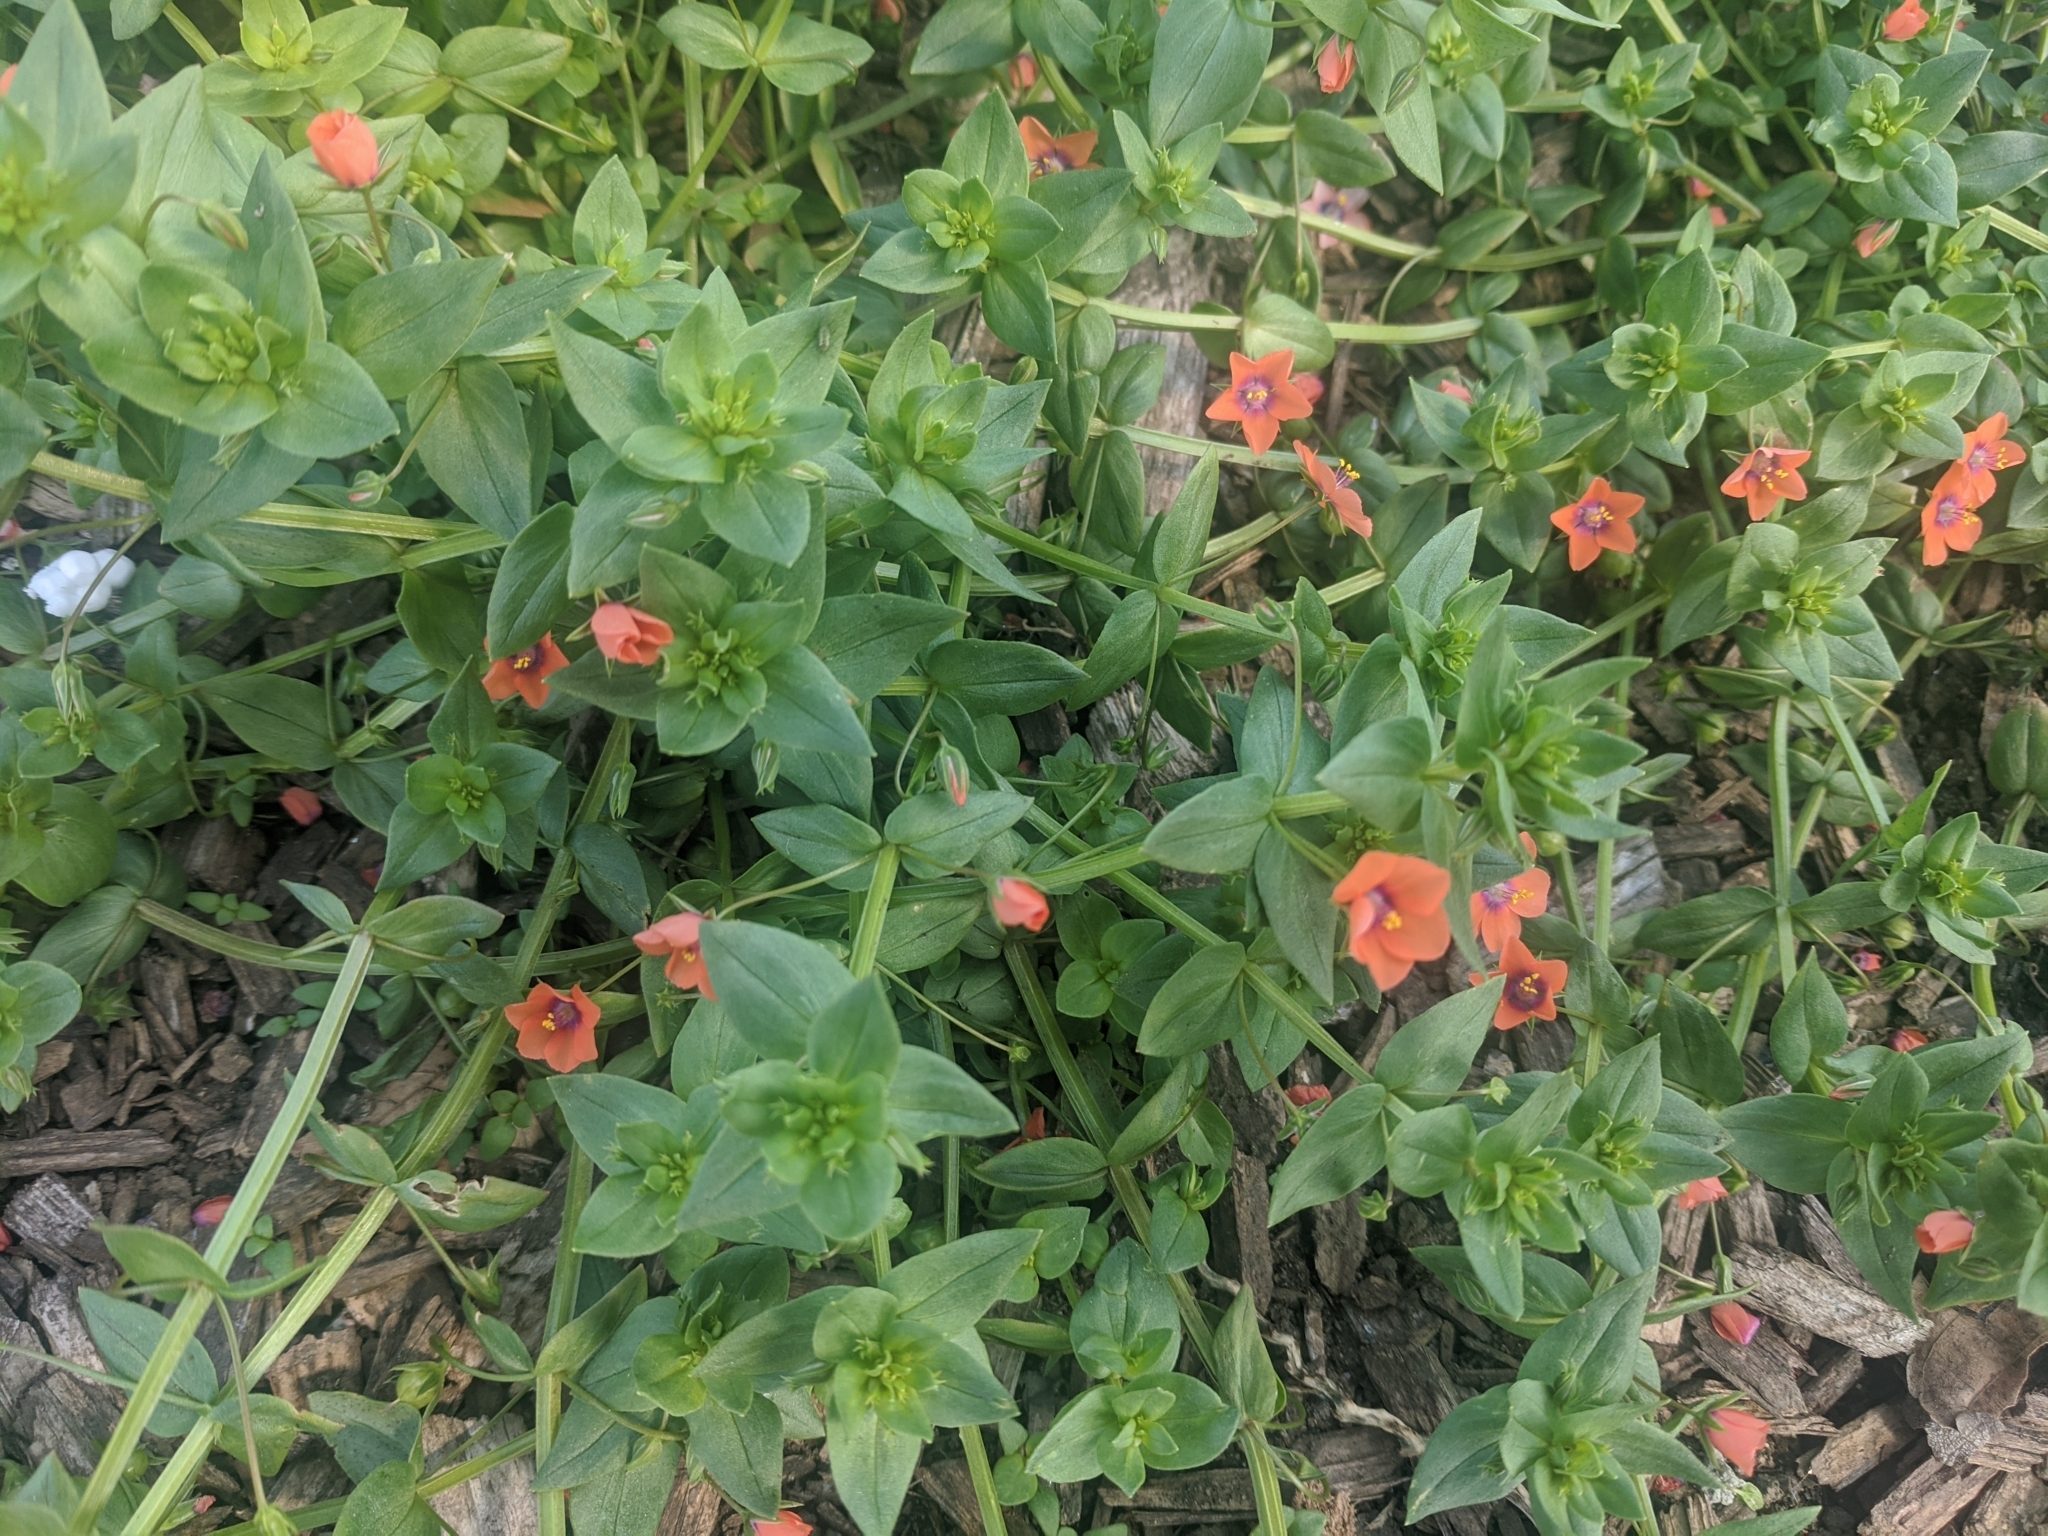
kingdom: Plantae
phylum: Tracheophyta
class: Magnoliopsida
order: Ericales
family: Primulaceae
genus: Lysimachia
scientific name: Lysimachia arvensis
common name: Scarlet pimpernel
